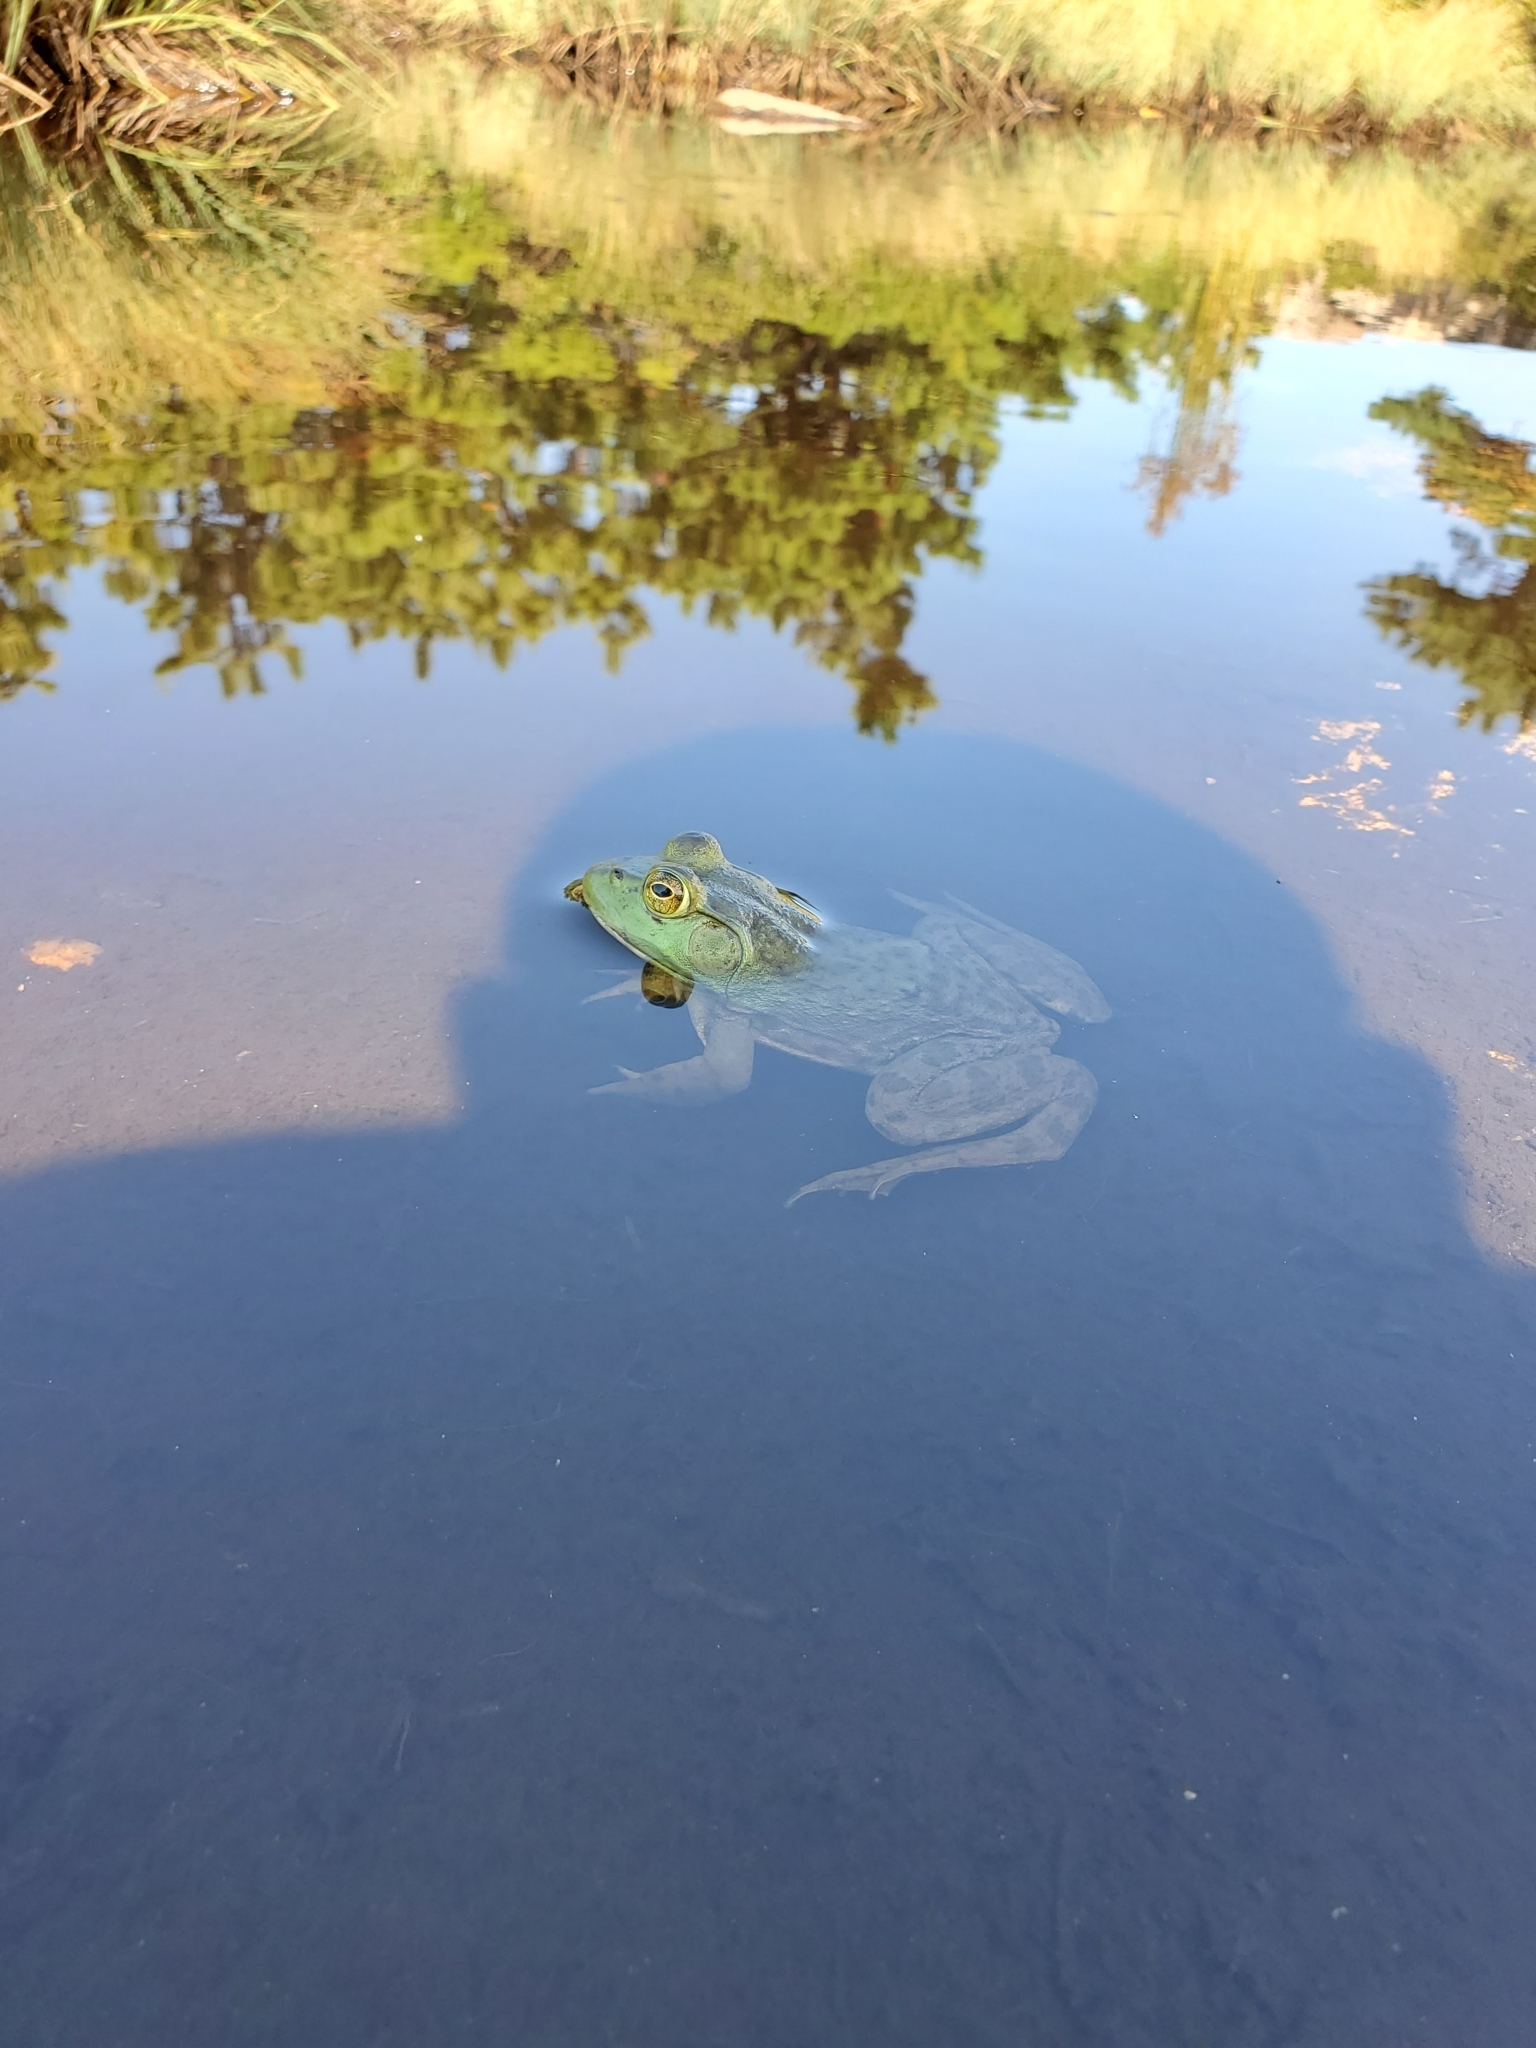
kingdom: Animalia
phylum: Chordata
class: Amphibia
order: Anura
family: Ranidae
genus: Lithobates
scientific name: Lithobates catesbeianus
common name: American bullfrog
